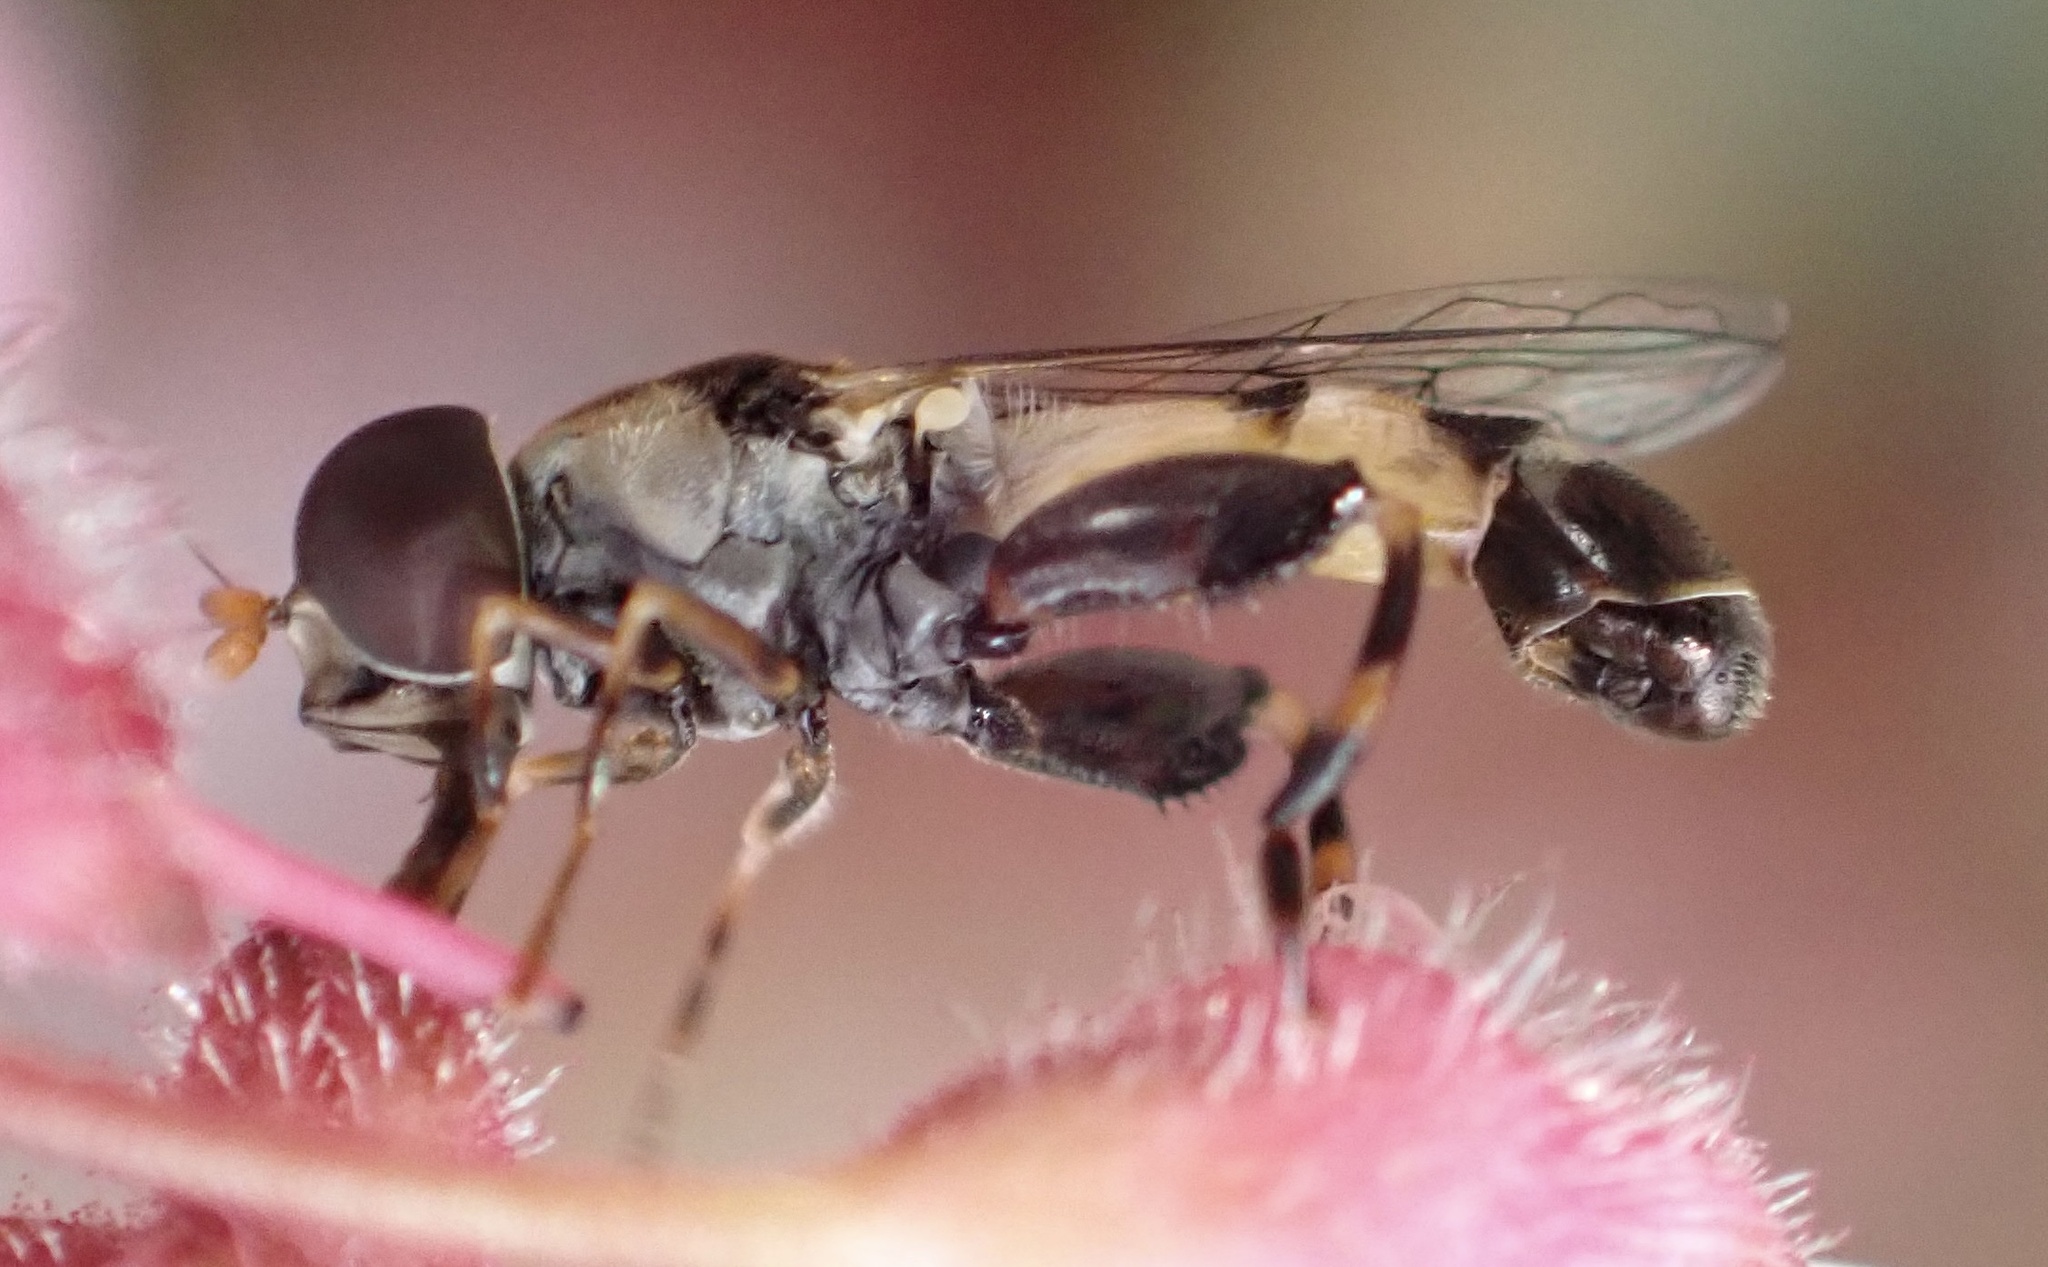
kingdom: Animalia
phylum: Arthropoda
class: Insecta
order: Diptera
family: Syrphidae
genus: Syritta
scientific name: Syritta pipiens
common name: Hover fly
